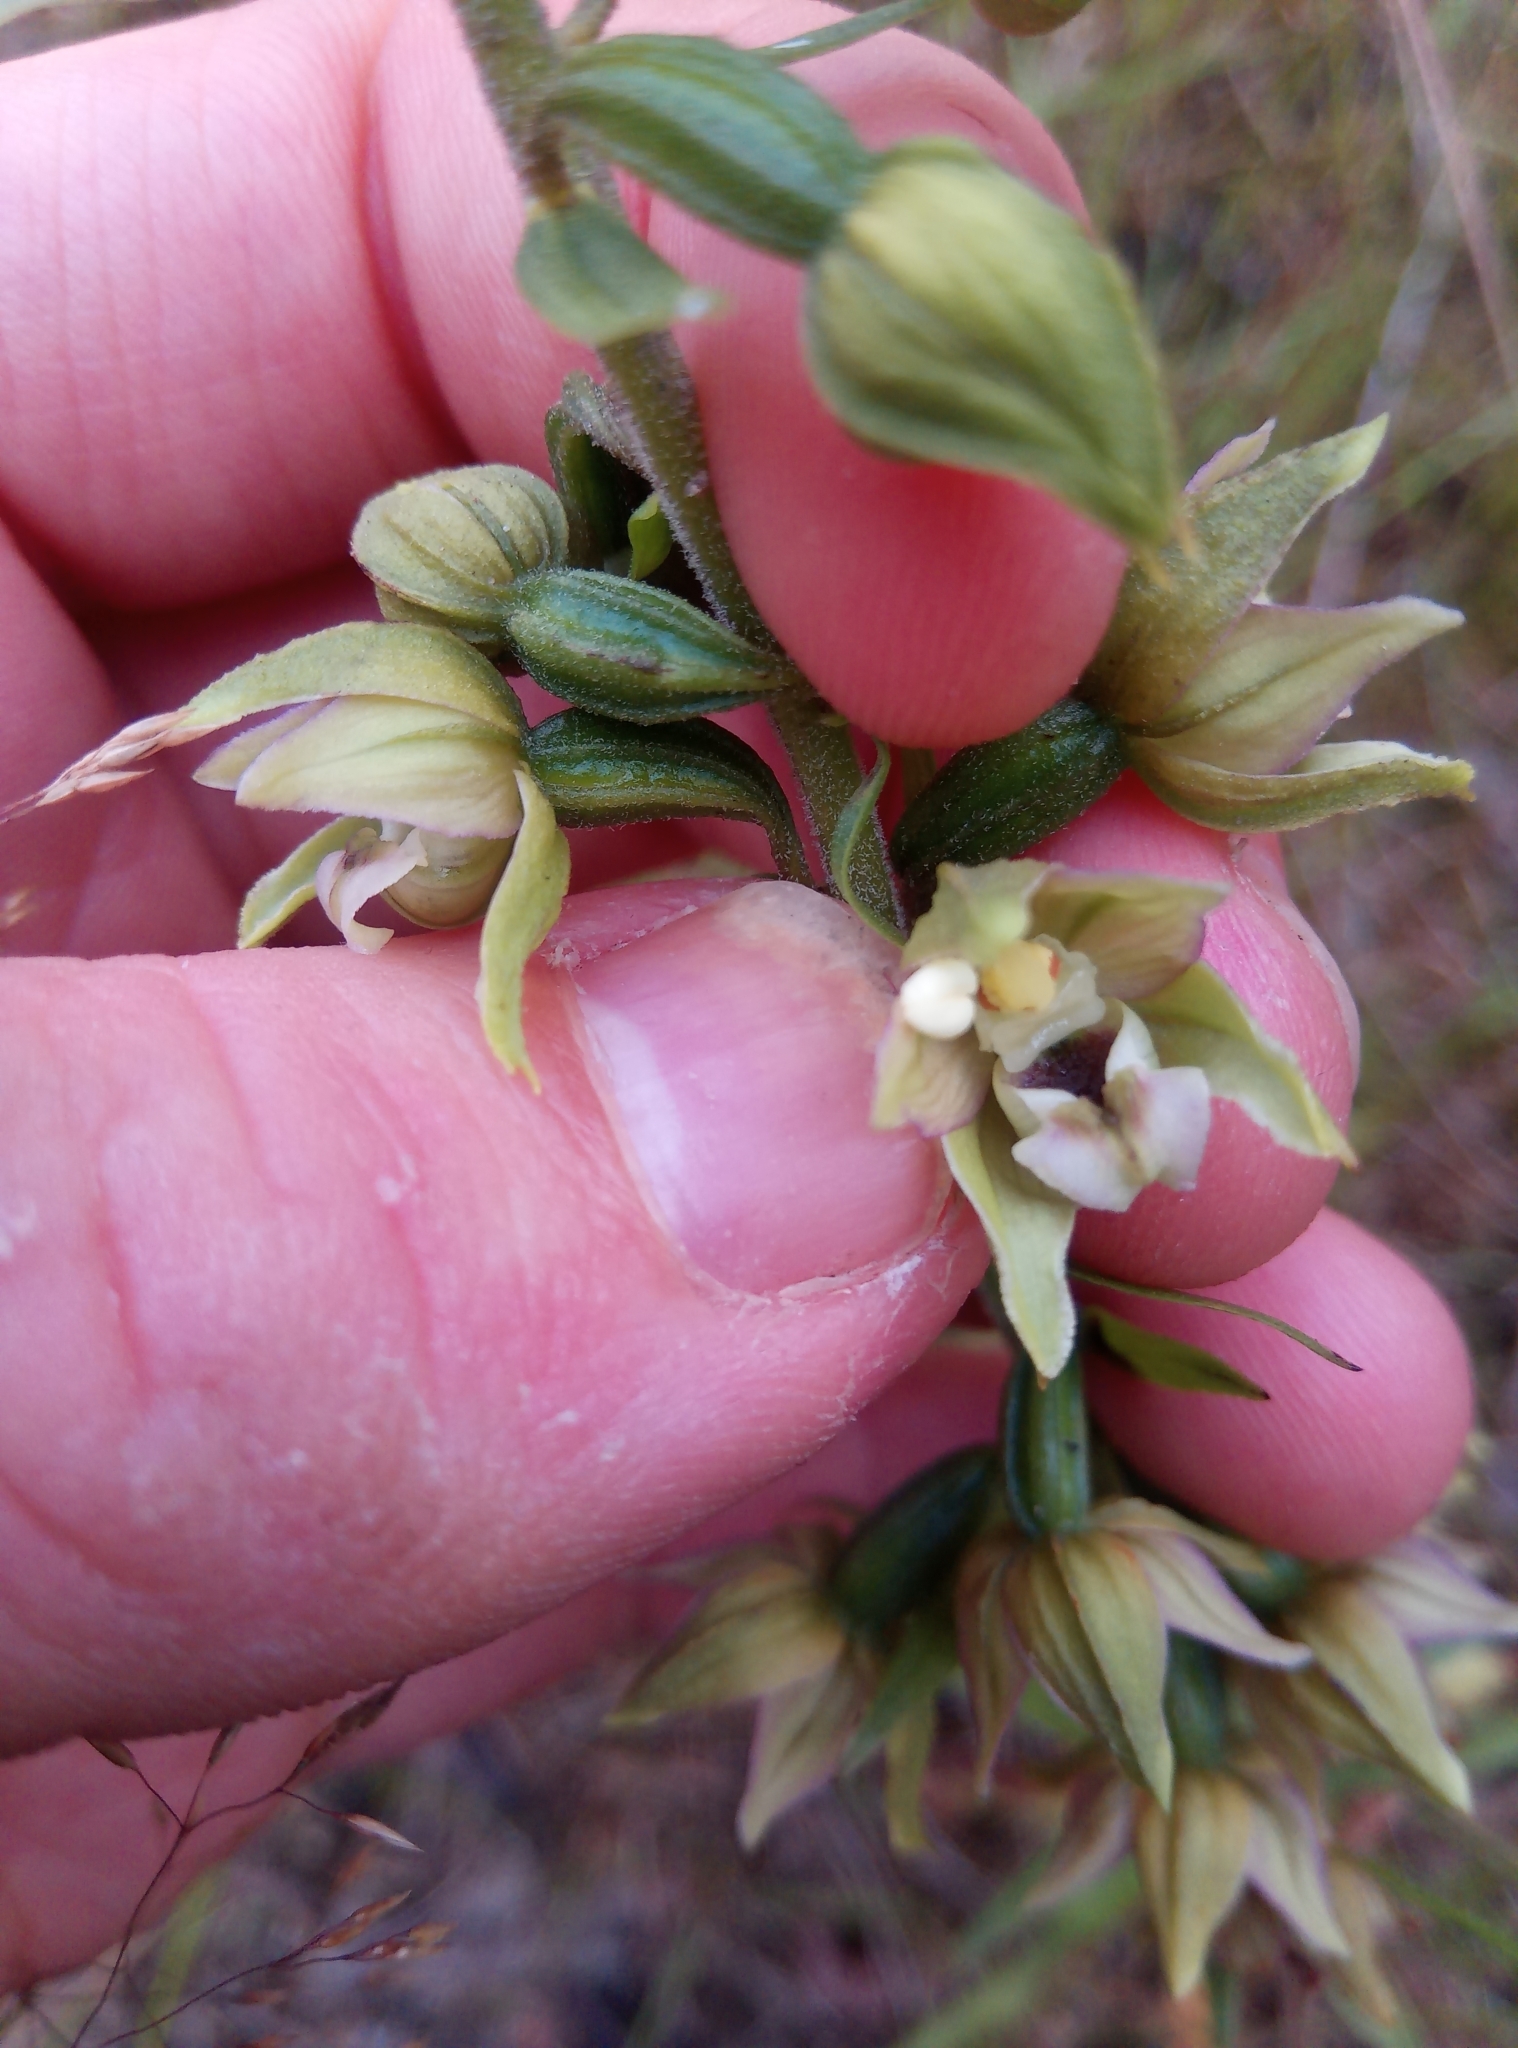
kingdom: Plantae
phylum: Tracheophyta
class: Liliopsida
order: Asparagales
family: Orchidaceae
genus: Epipactis
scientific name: Epipactis helleborine
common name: Broad-leaved helleborine
